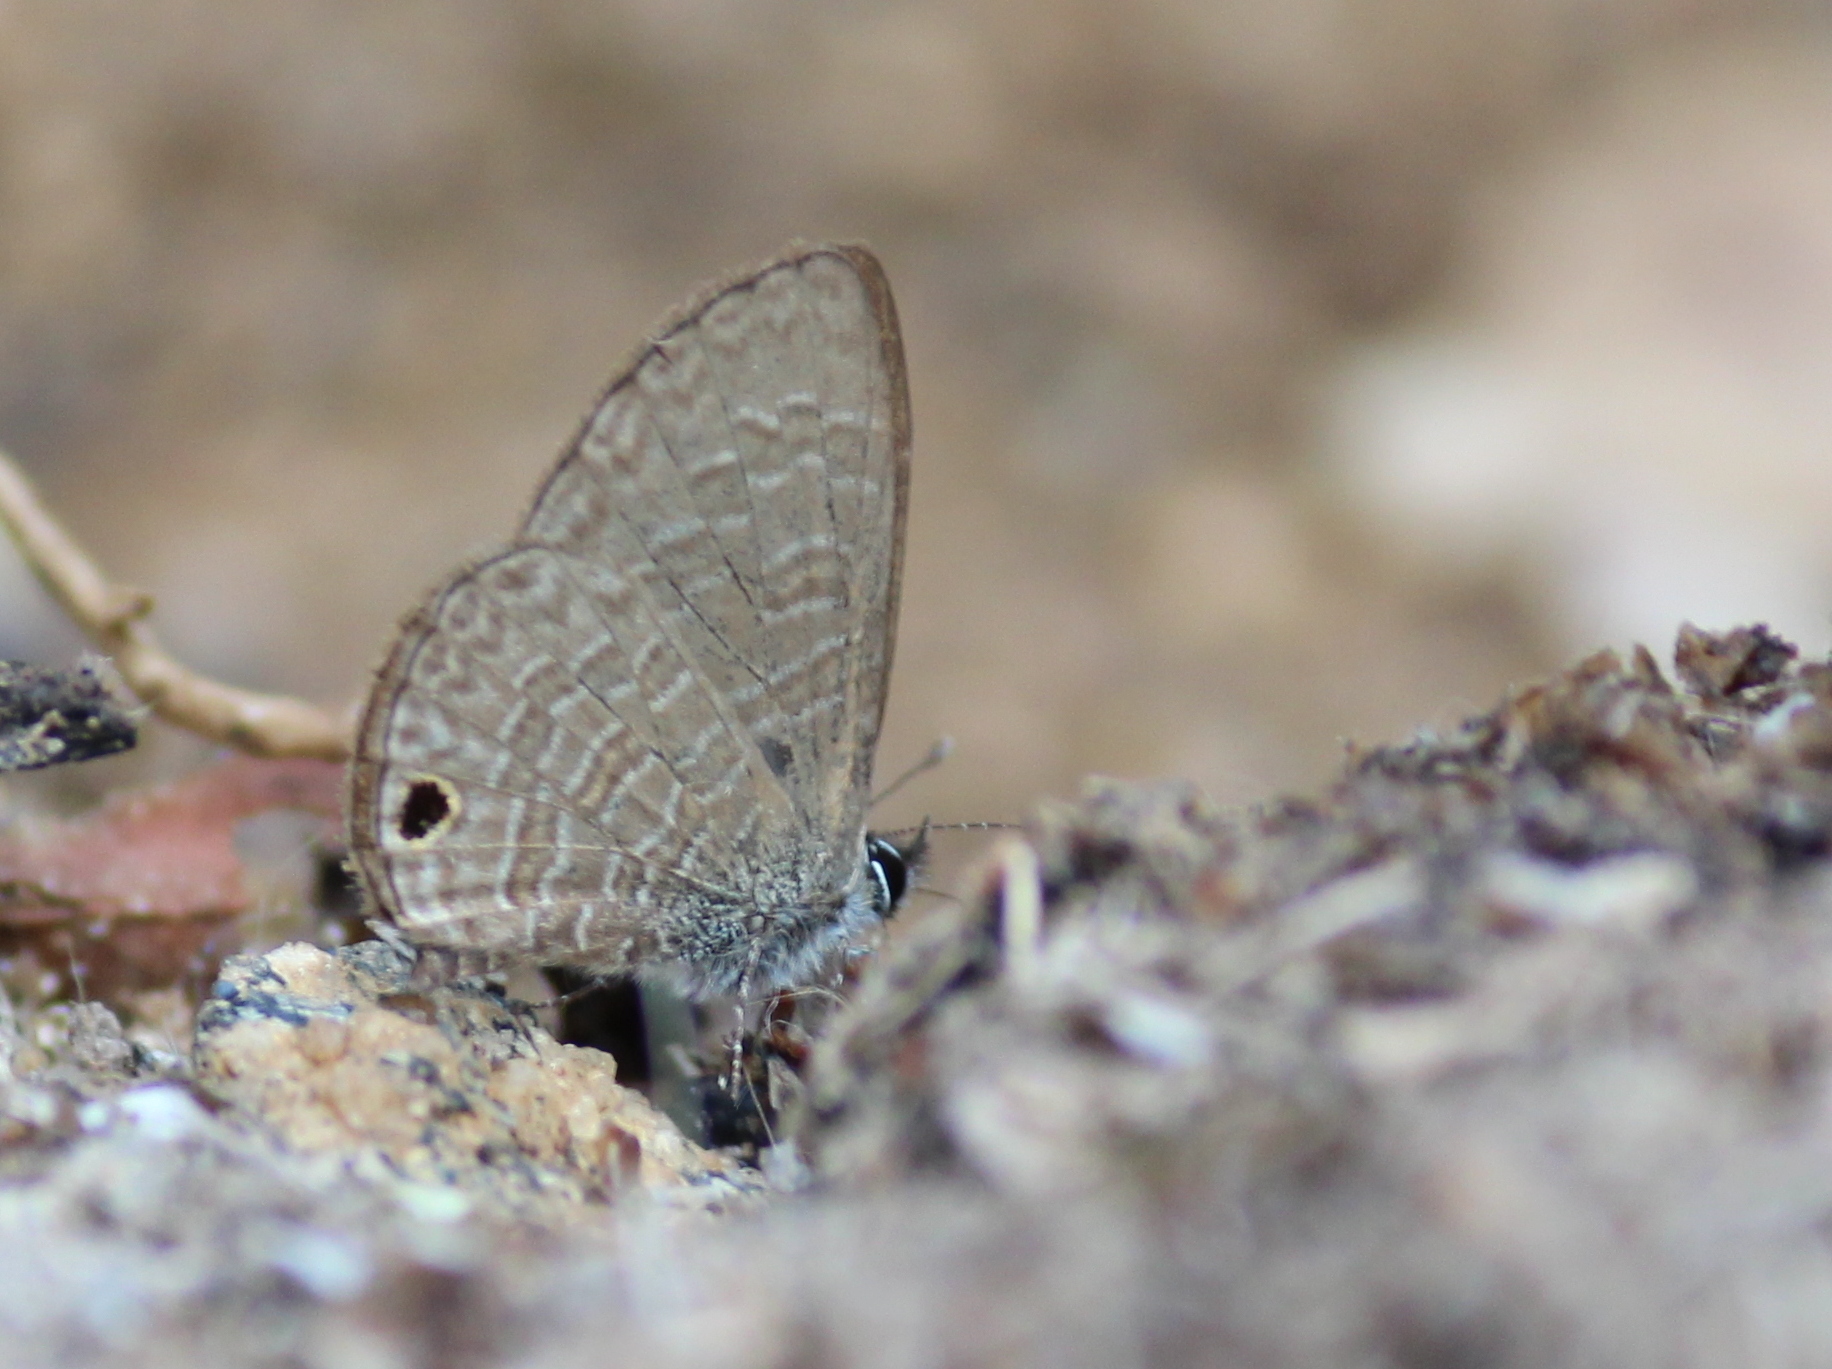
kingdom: Animalia
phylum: Arthropoda
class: Insecta
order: Lepidoptera
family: Lycaenidae
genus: Prosotas
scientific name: Prosotas dubiosa
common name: Tailless lineblue
